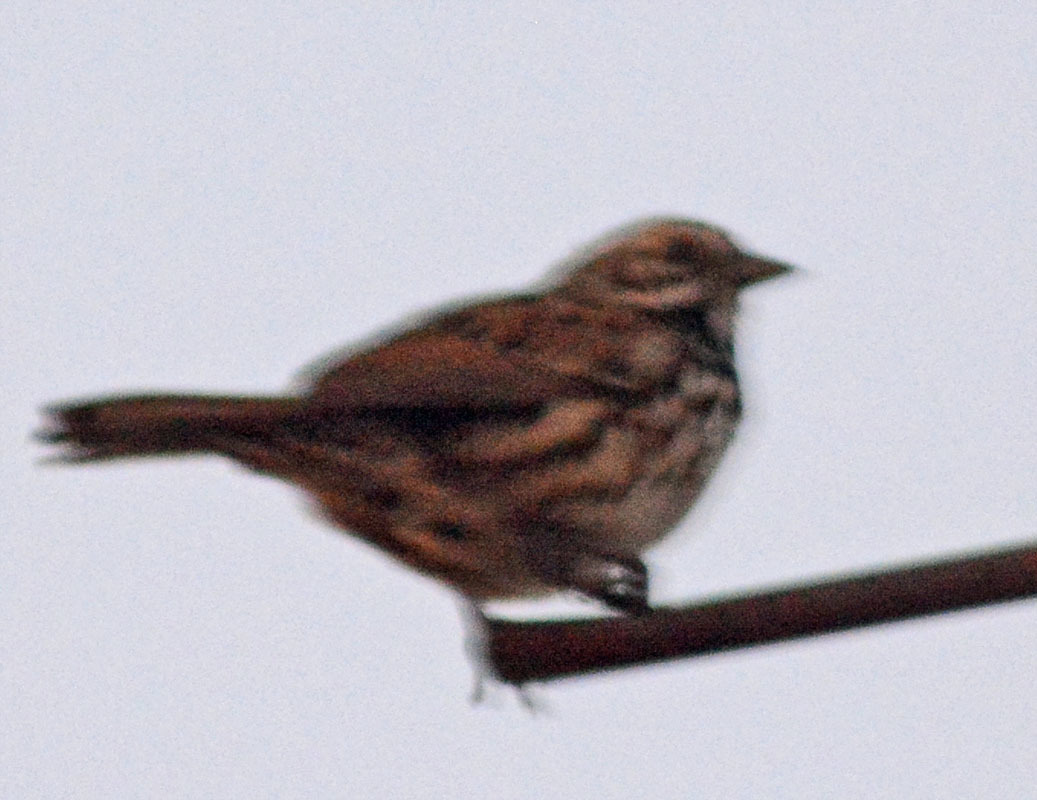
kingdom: Animalia
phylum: Chordata
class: Aves
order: Passeriformes
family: Passerellidae
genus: Melospiza
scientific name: Melospiza melodia
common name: Song sparrow
